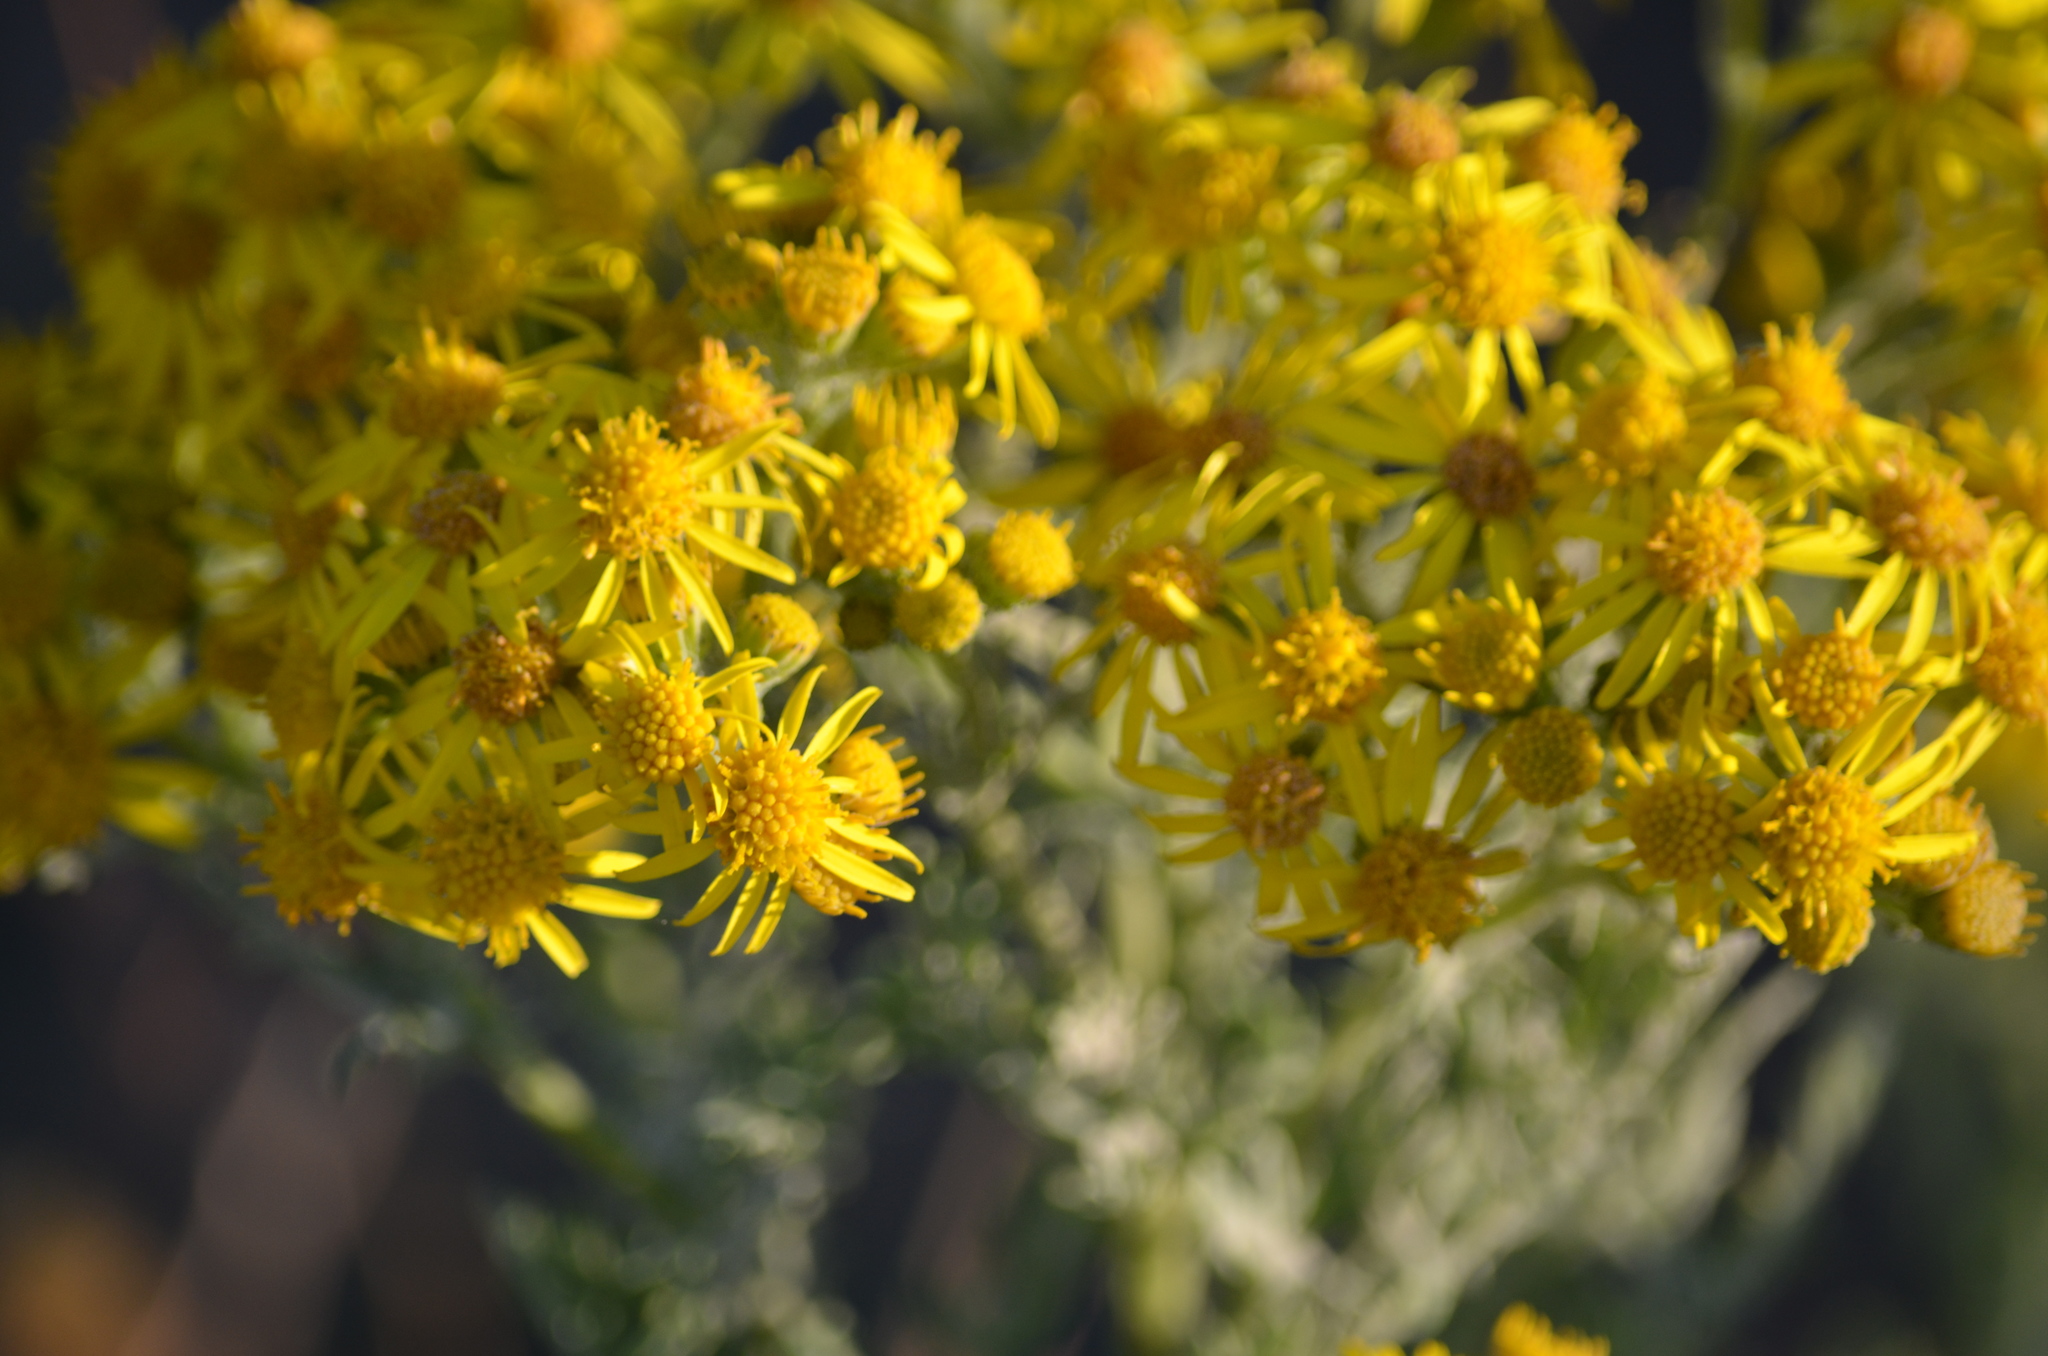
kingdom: Plantae
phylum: Tracheophyta
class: Magnoliopsida
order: Asterales
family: Asteraceae
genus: Jacobaea
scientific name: Jacobaea vulgaris
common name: Stinking willie
